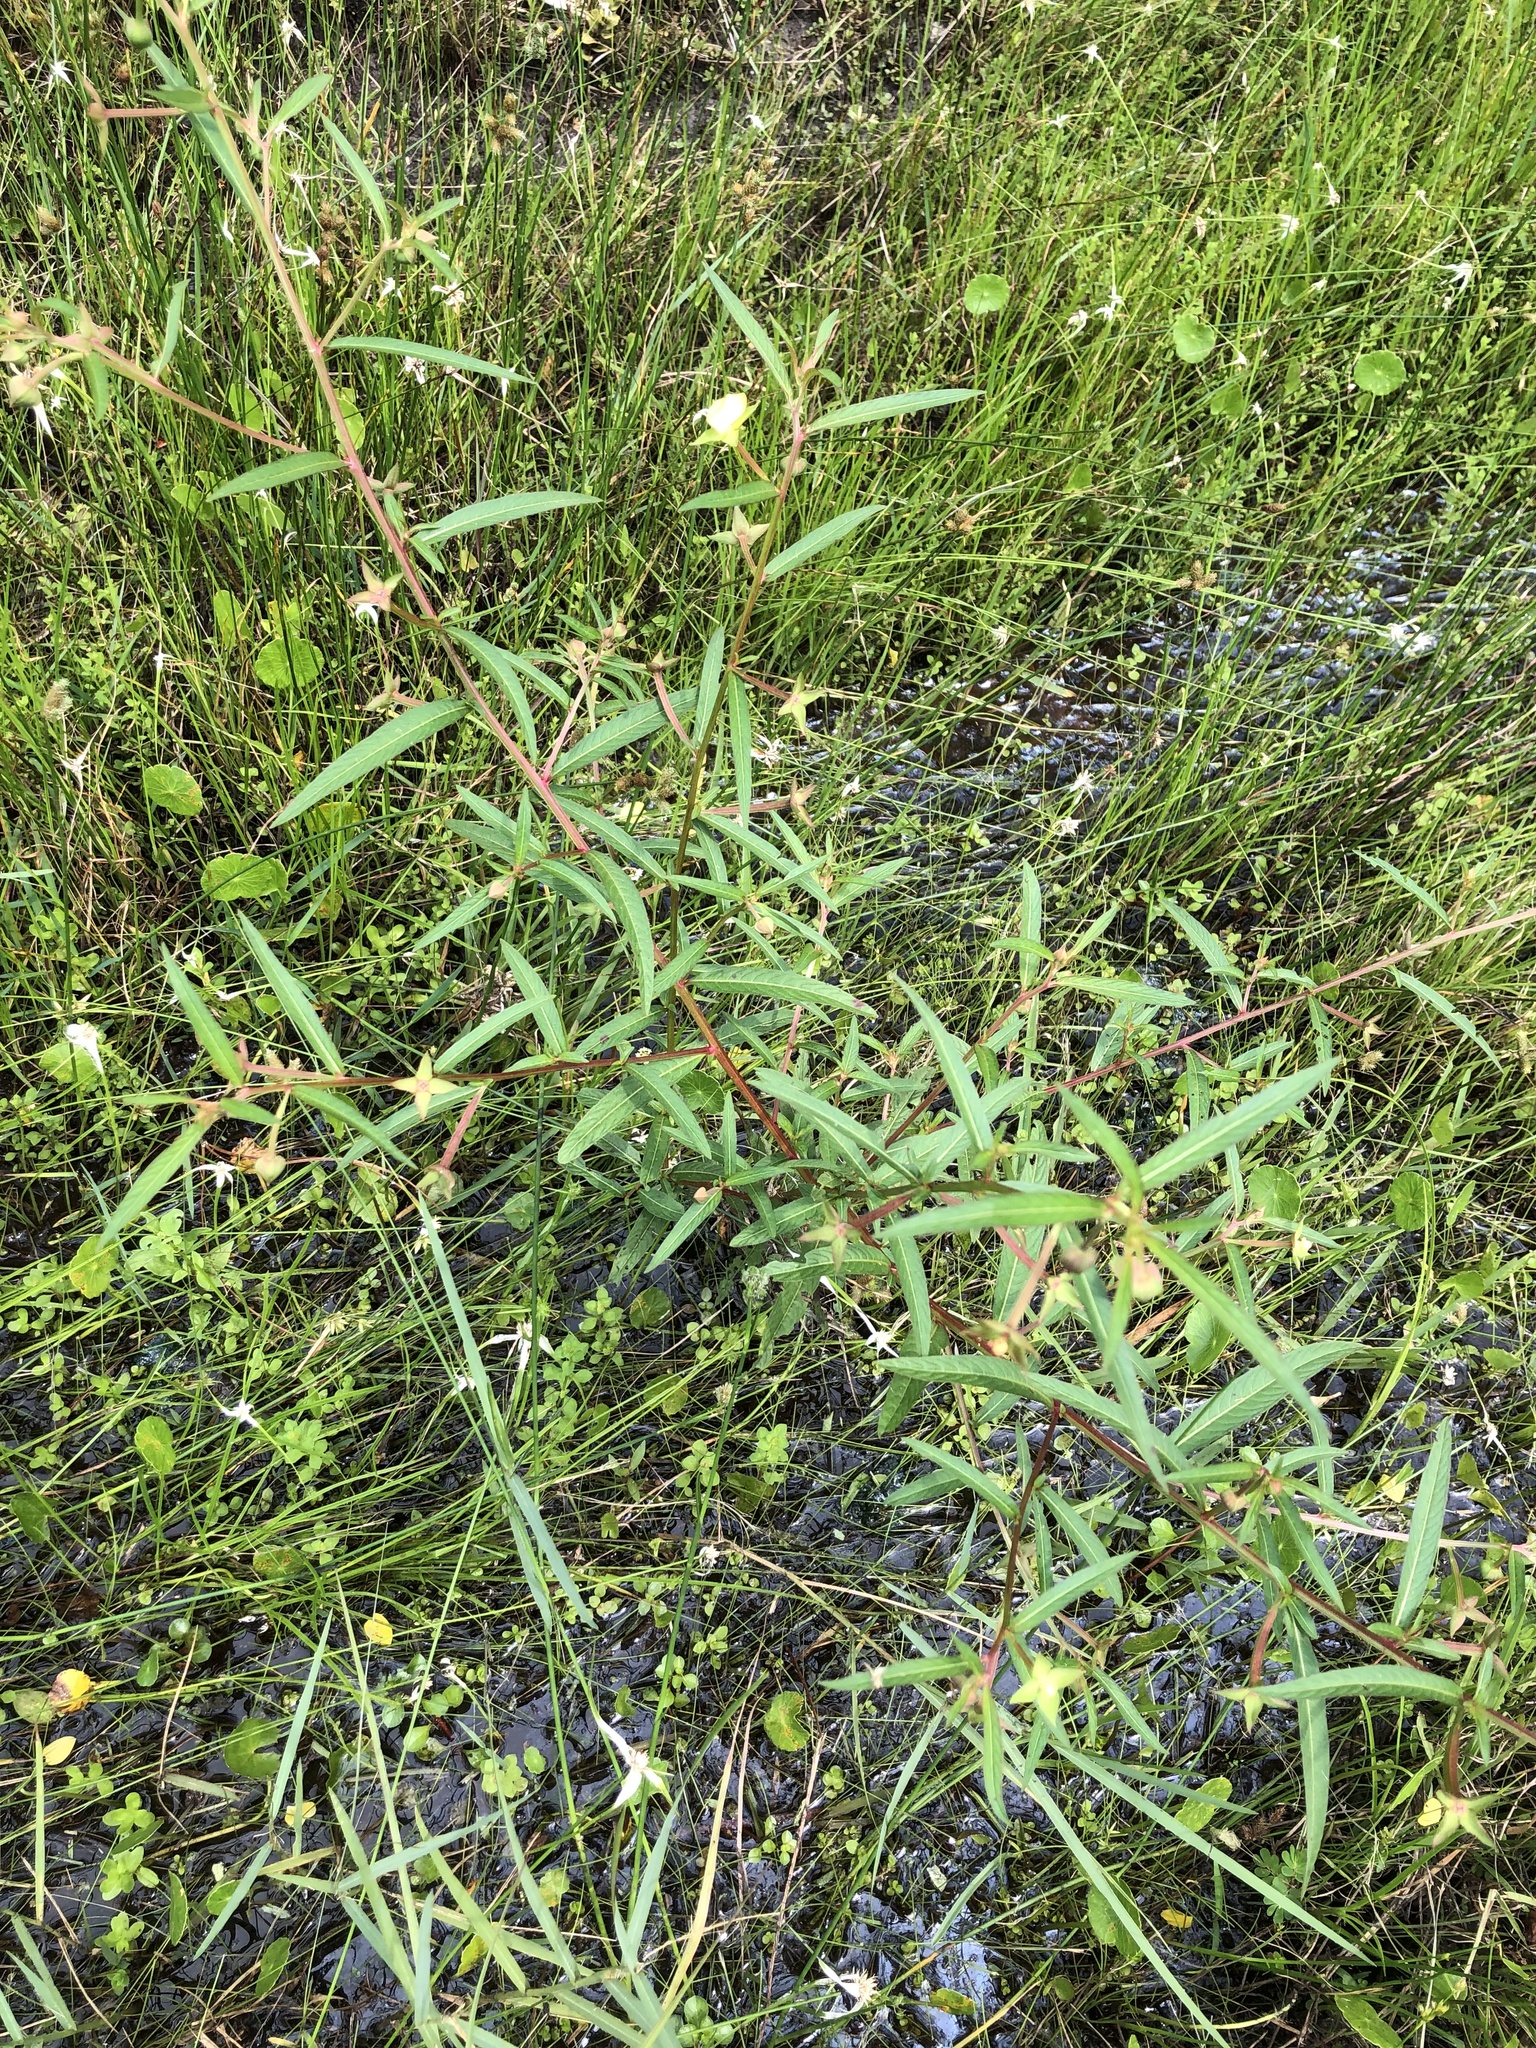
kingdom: Plantae
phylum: Tracheophyta
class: Magnoliopsida
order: Myrtales
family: Onagraceae
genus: Ludwigia
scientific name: Ludwigia octovalvis
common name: Water-primrose
